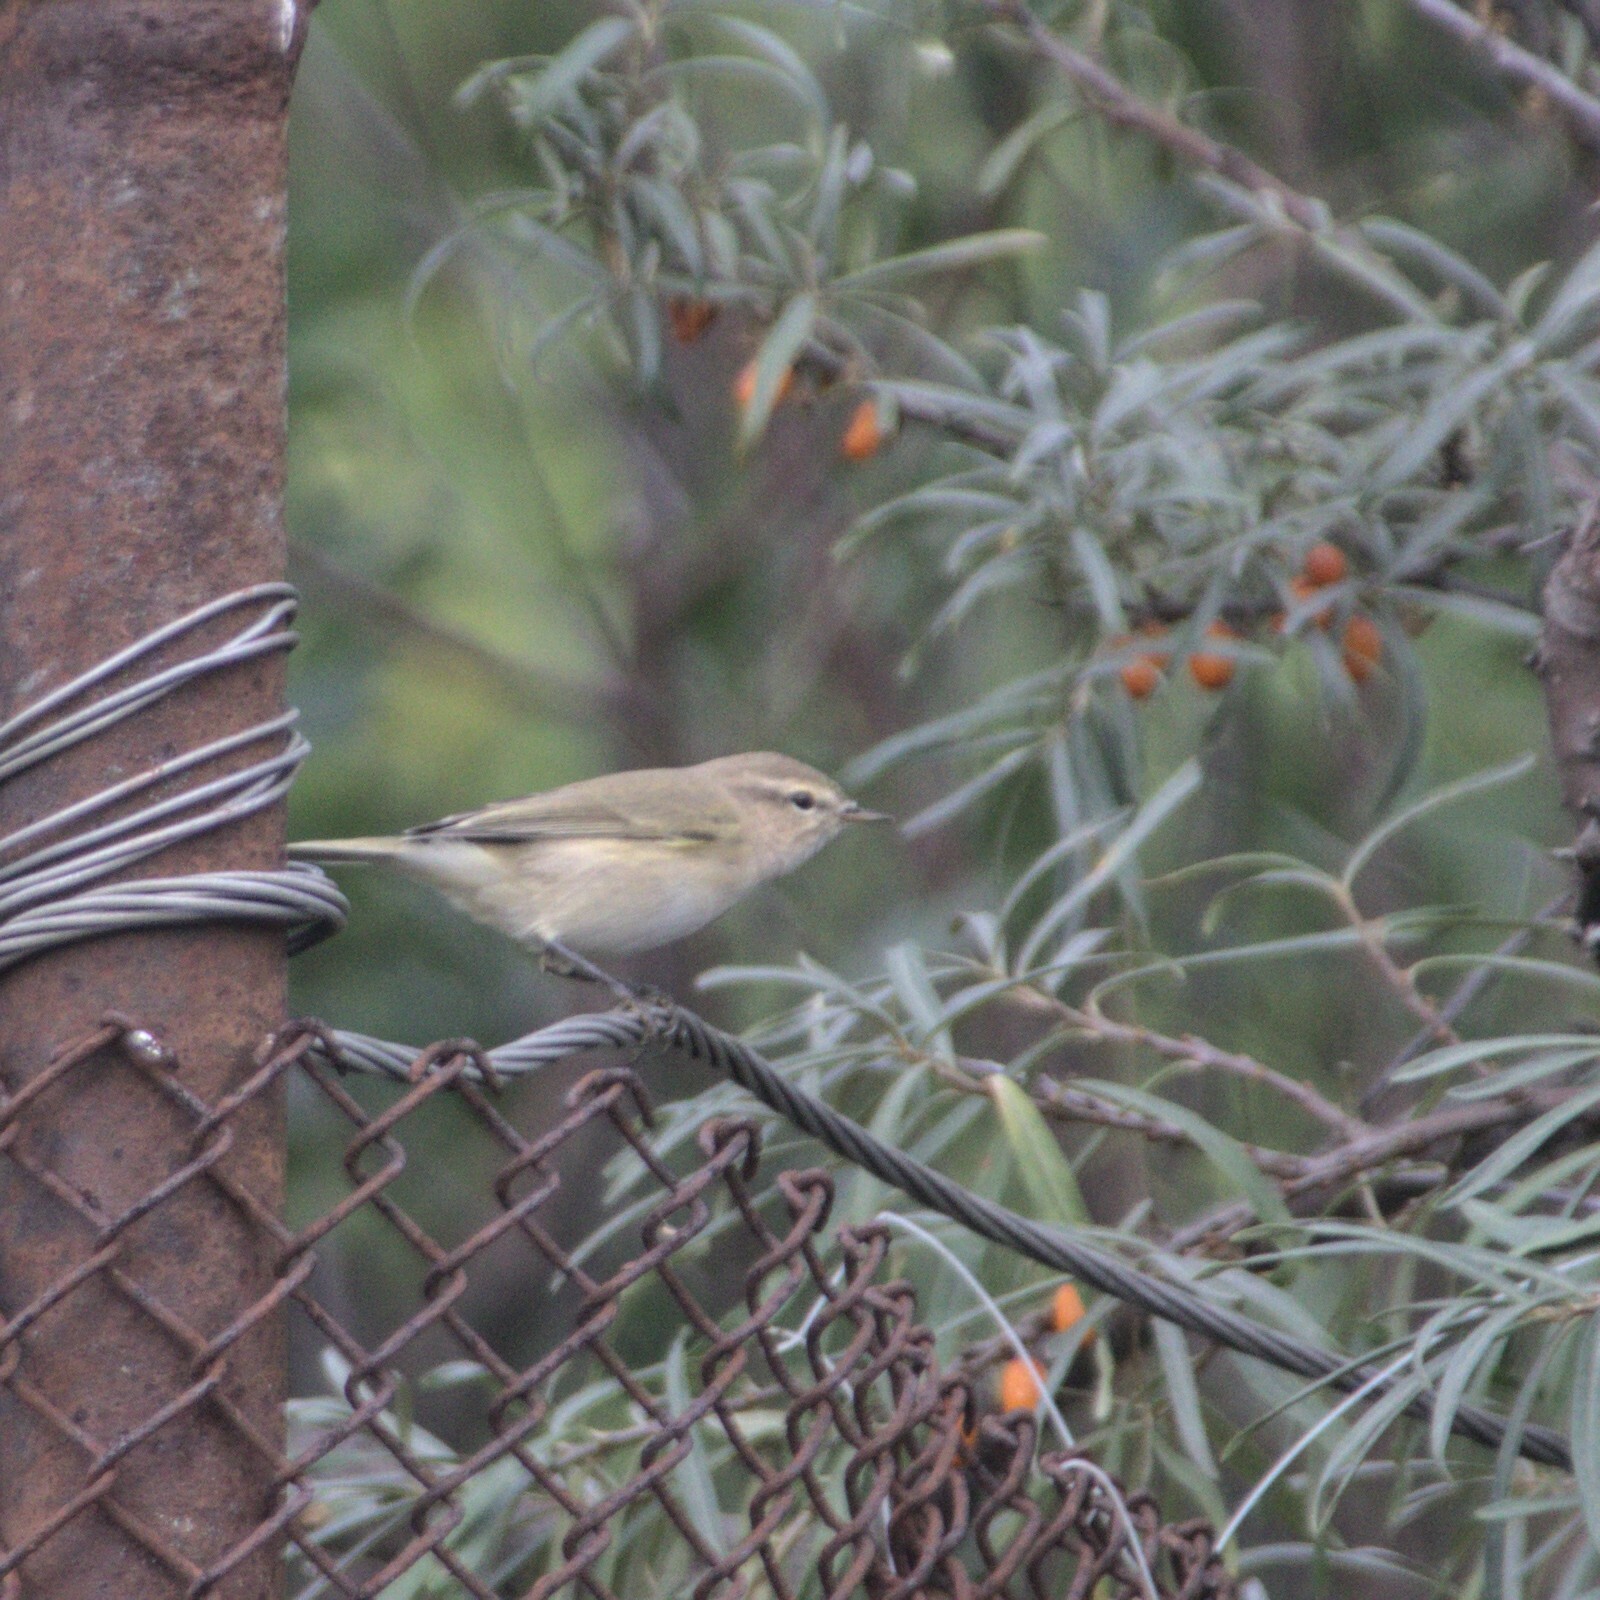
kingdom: Animalia
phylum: Chordata
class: Aves
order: Passeriformes
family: Phylloscopidae
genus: Phylloscopus
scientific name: Phylloscopus collybita
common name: Common chiffchaff
